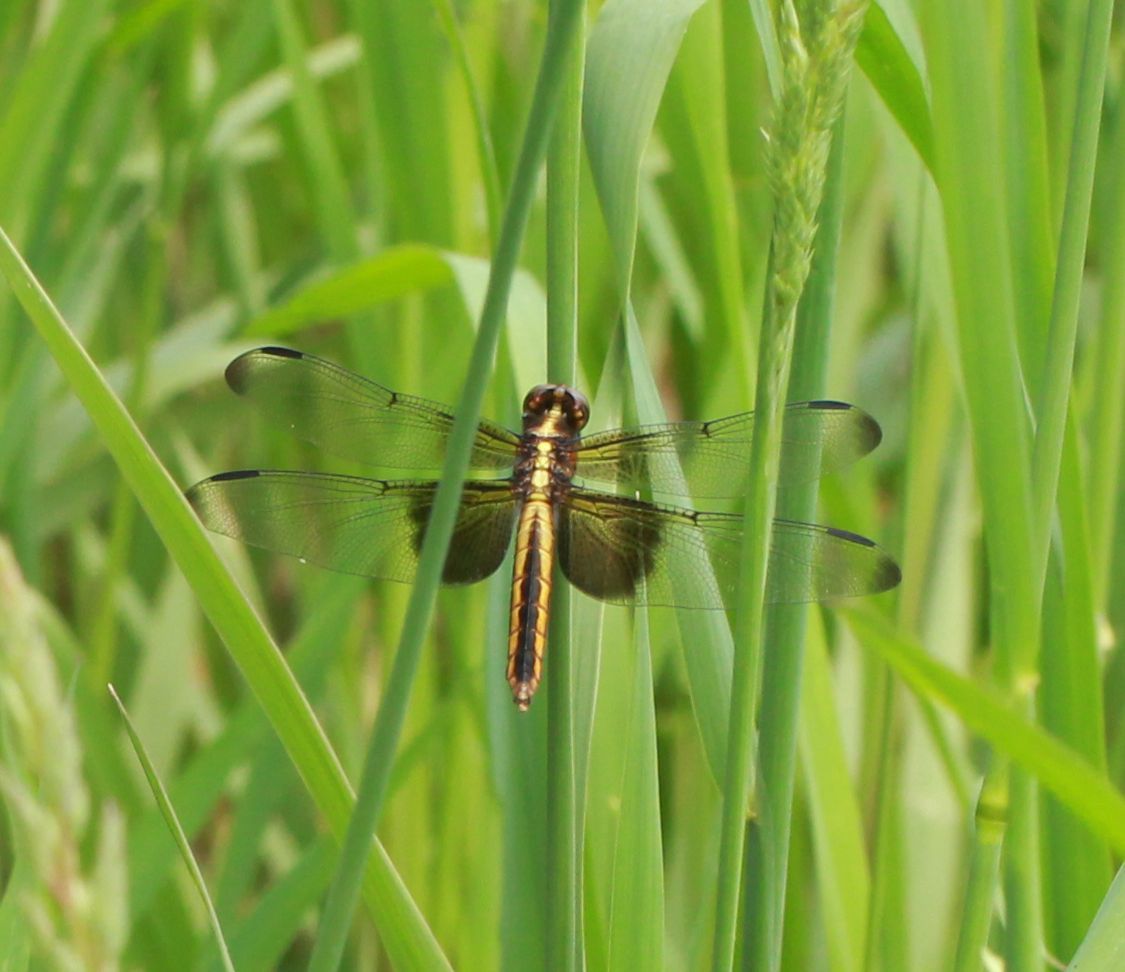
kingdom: Animalia
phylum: Arthropoda
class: Insecta
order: Odonata
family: Libellulidae
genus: Libellula
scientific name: Libellula luctuosa
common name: Widow skimmer
